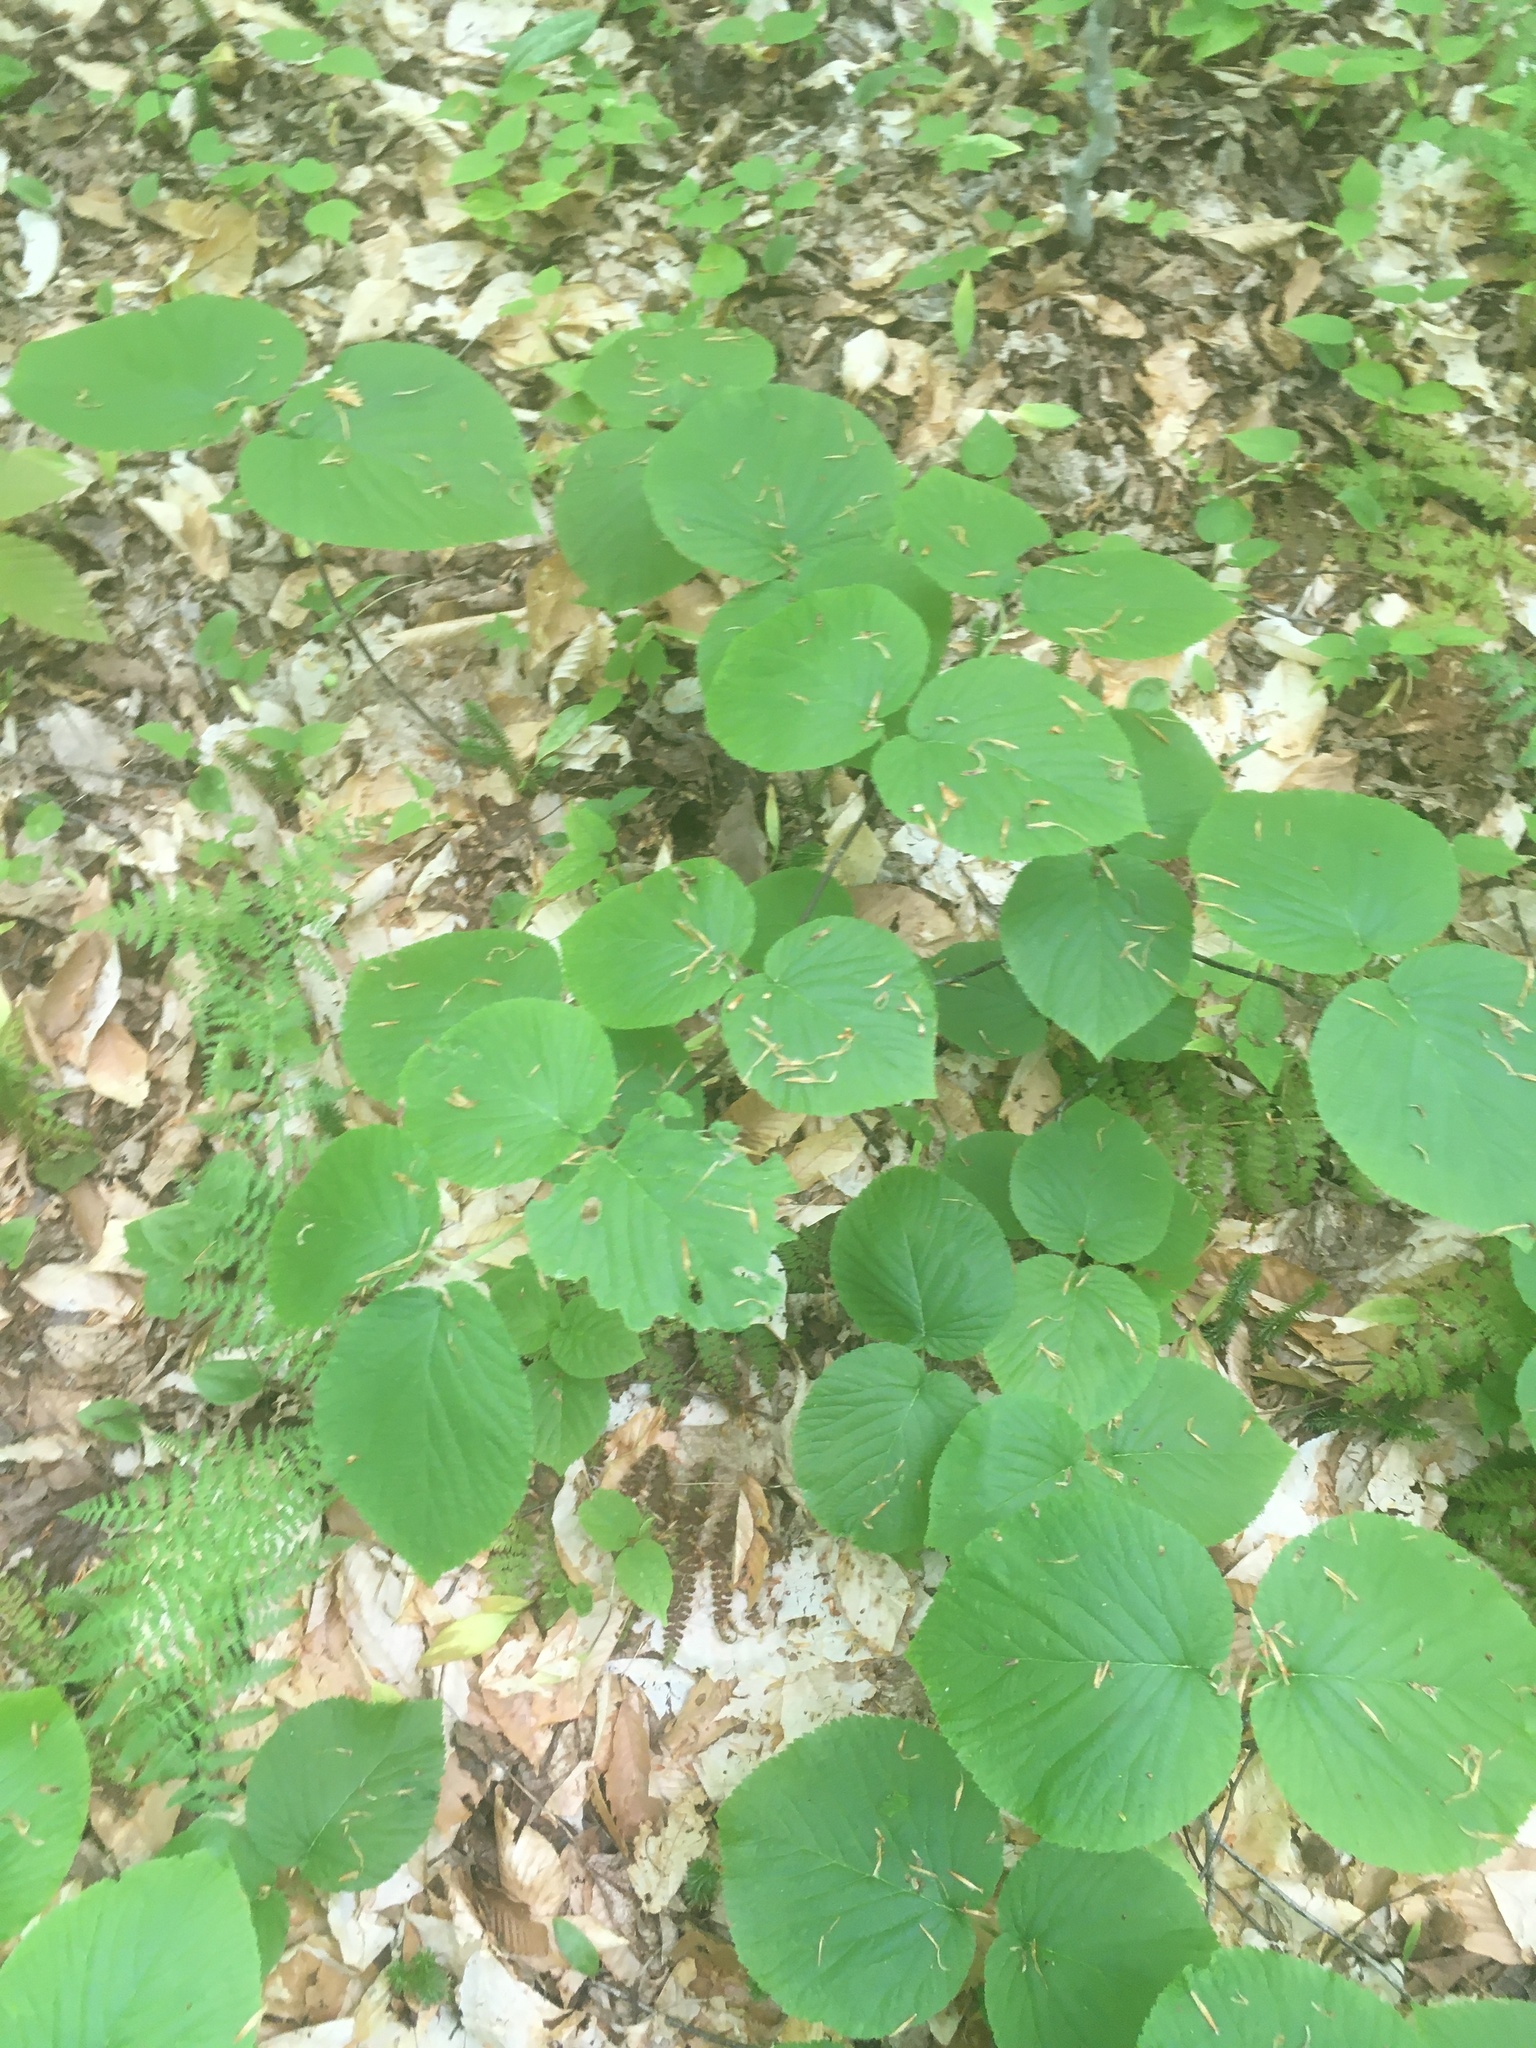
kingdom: Plantae
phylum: Tracheophyta
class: Magnoliopsida
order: Dipsacales
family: Viburnaceae
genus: Viburnum
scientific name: Viburnum lantanoides
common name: Hobblebush
